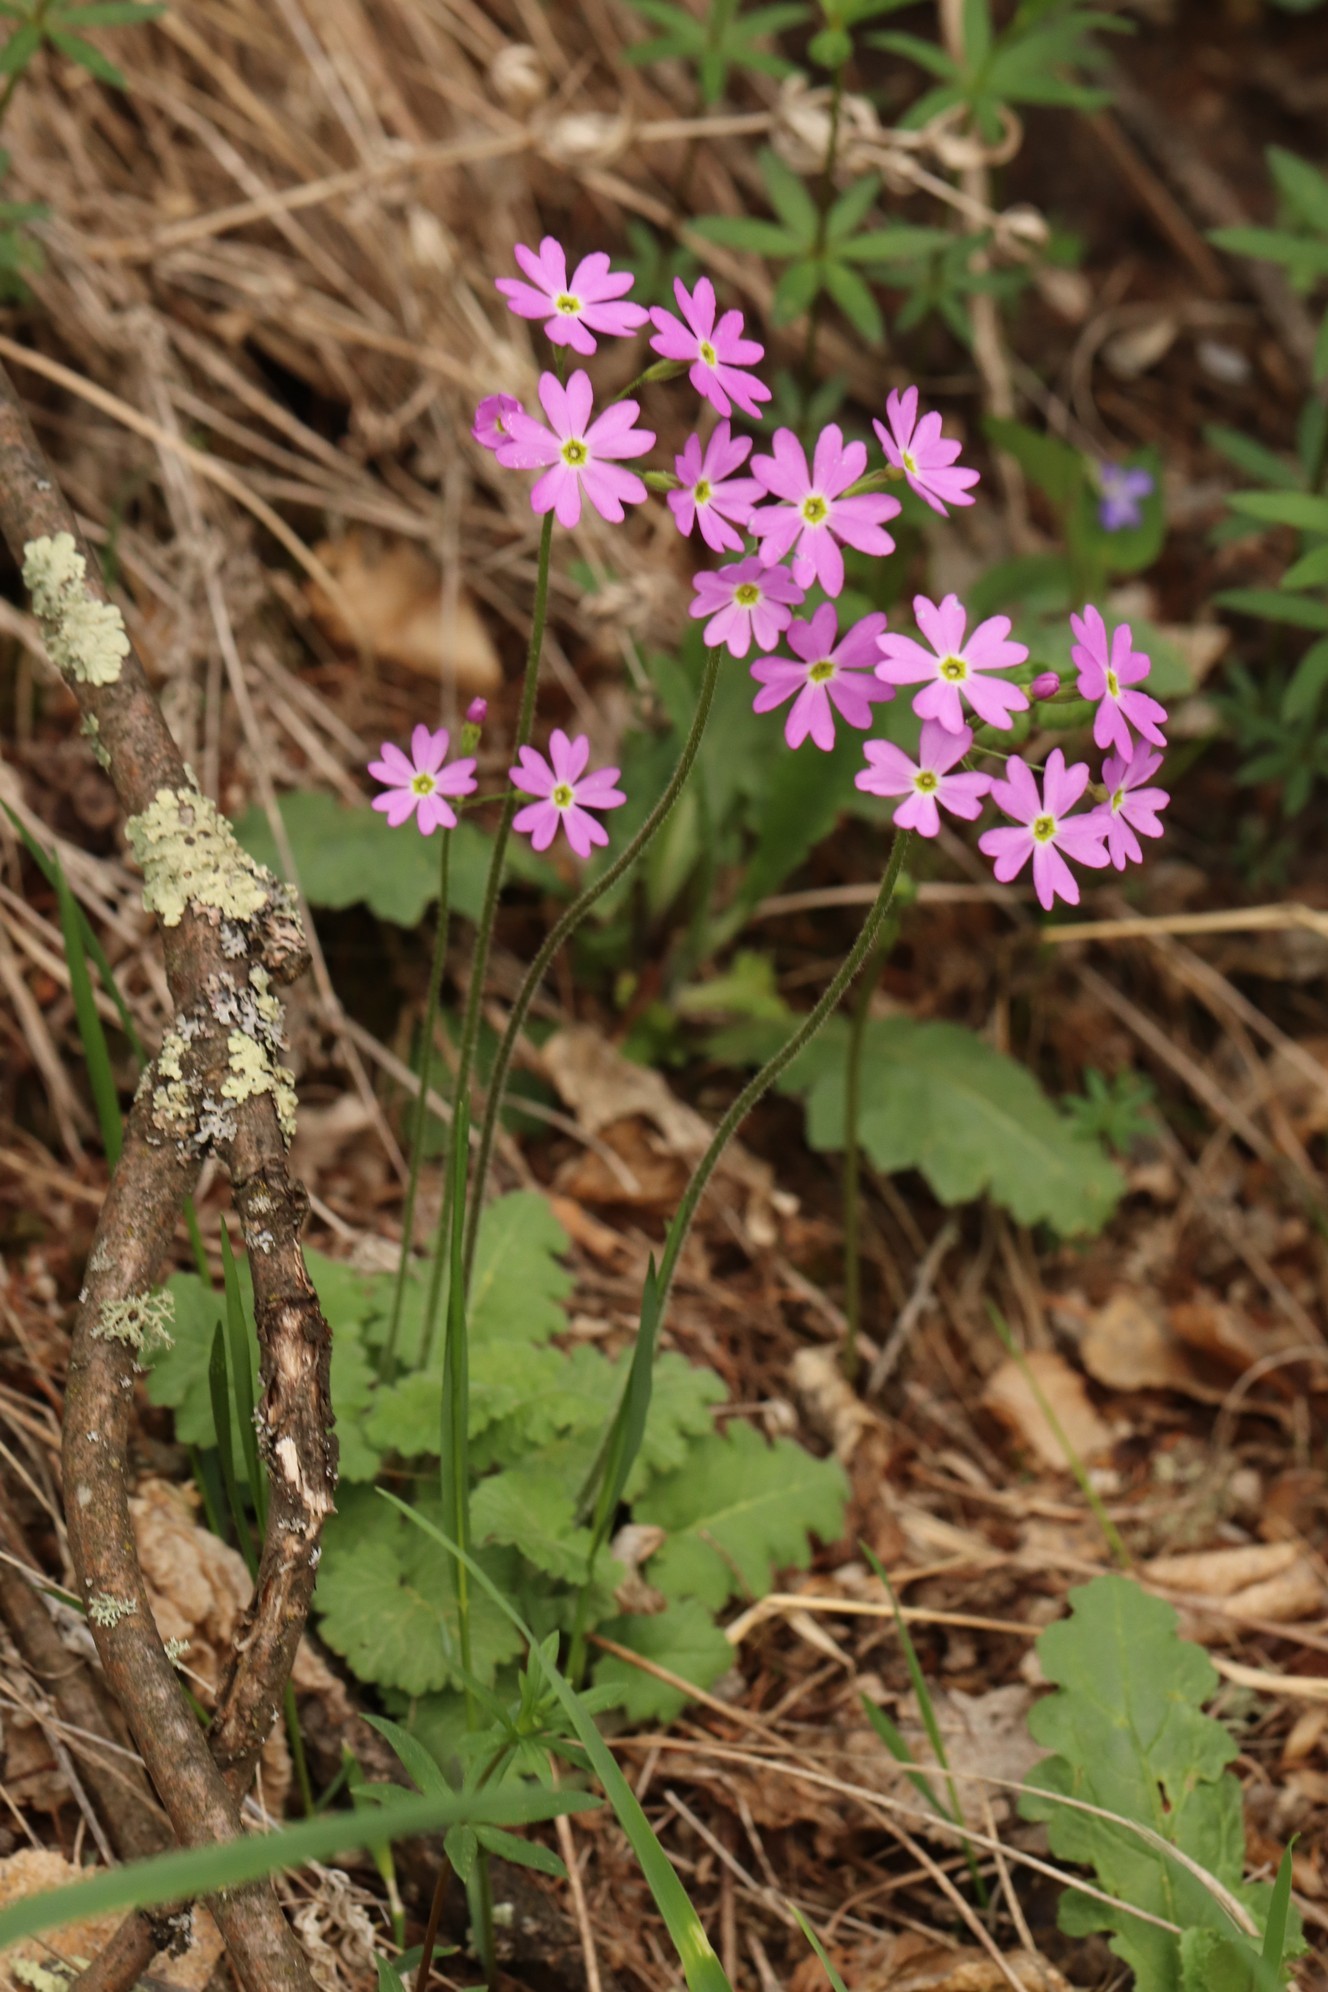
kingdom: Plantae
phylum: Tracheophyta
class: Magnoliopsida
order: Ericales
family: Primulaceae
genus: Primula
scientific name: Primula cortusoides
